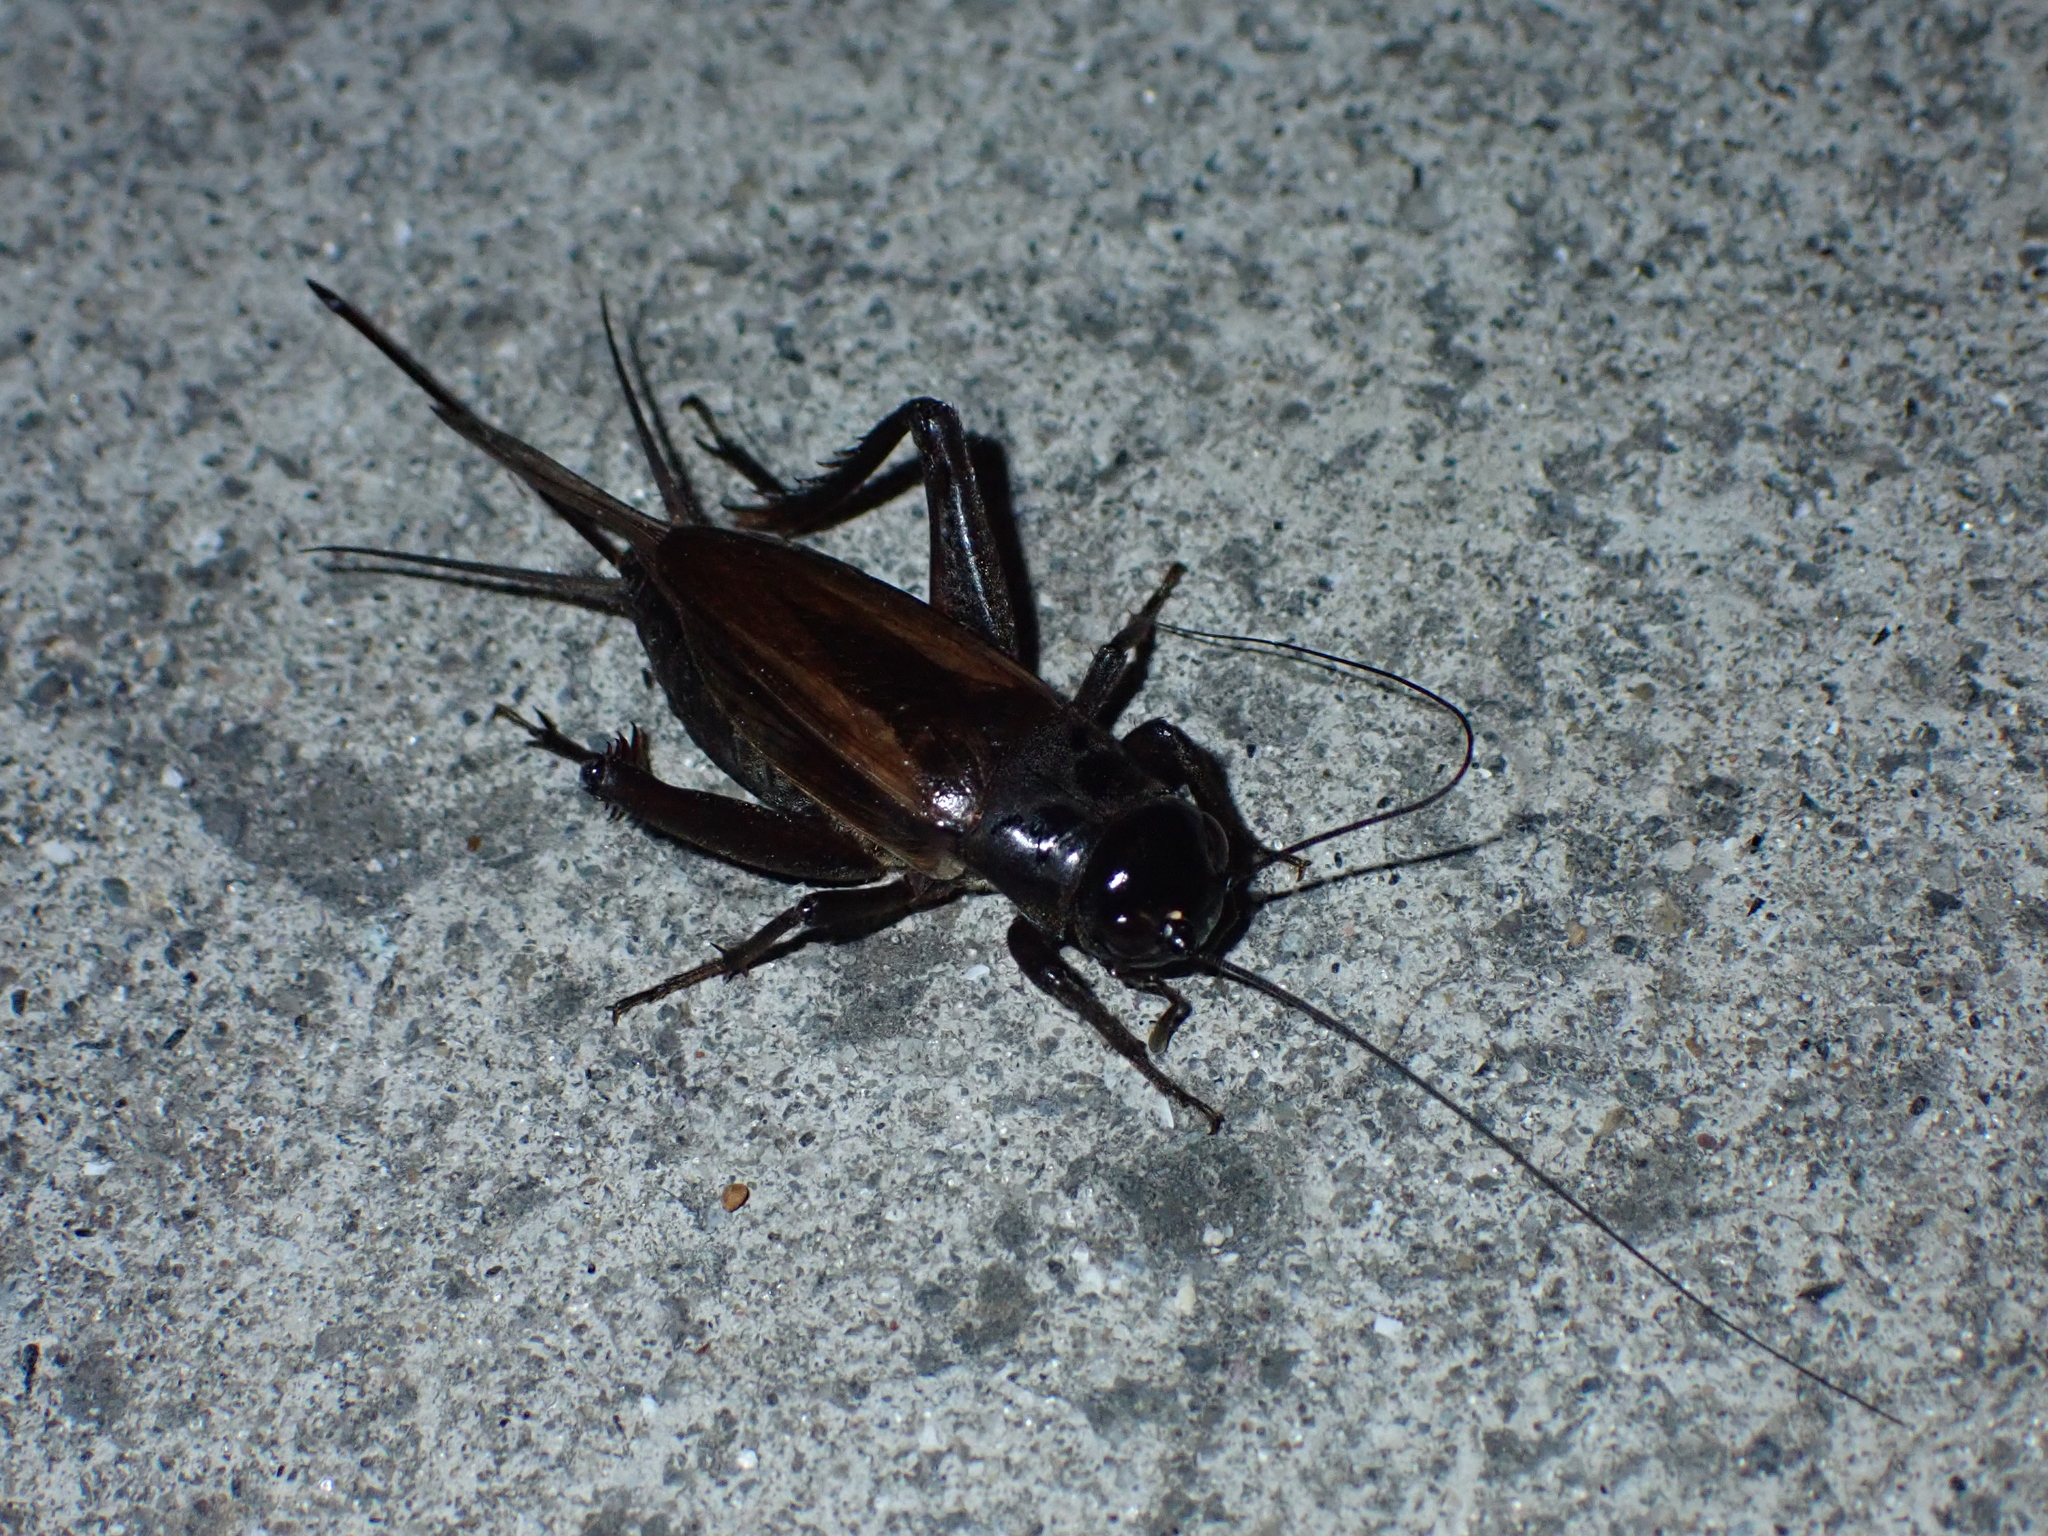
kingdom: Animalia
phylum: Arthropoda
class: Insecta
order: Orthoptera
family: Gryllidae
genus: Teleogryllus
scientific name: Teleogryllus commodus
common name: Black field cricket
